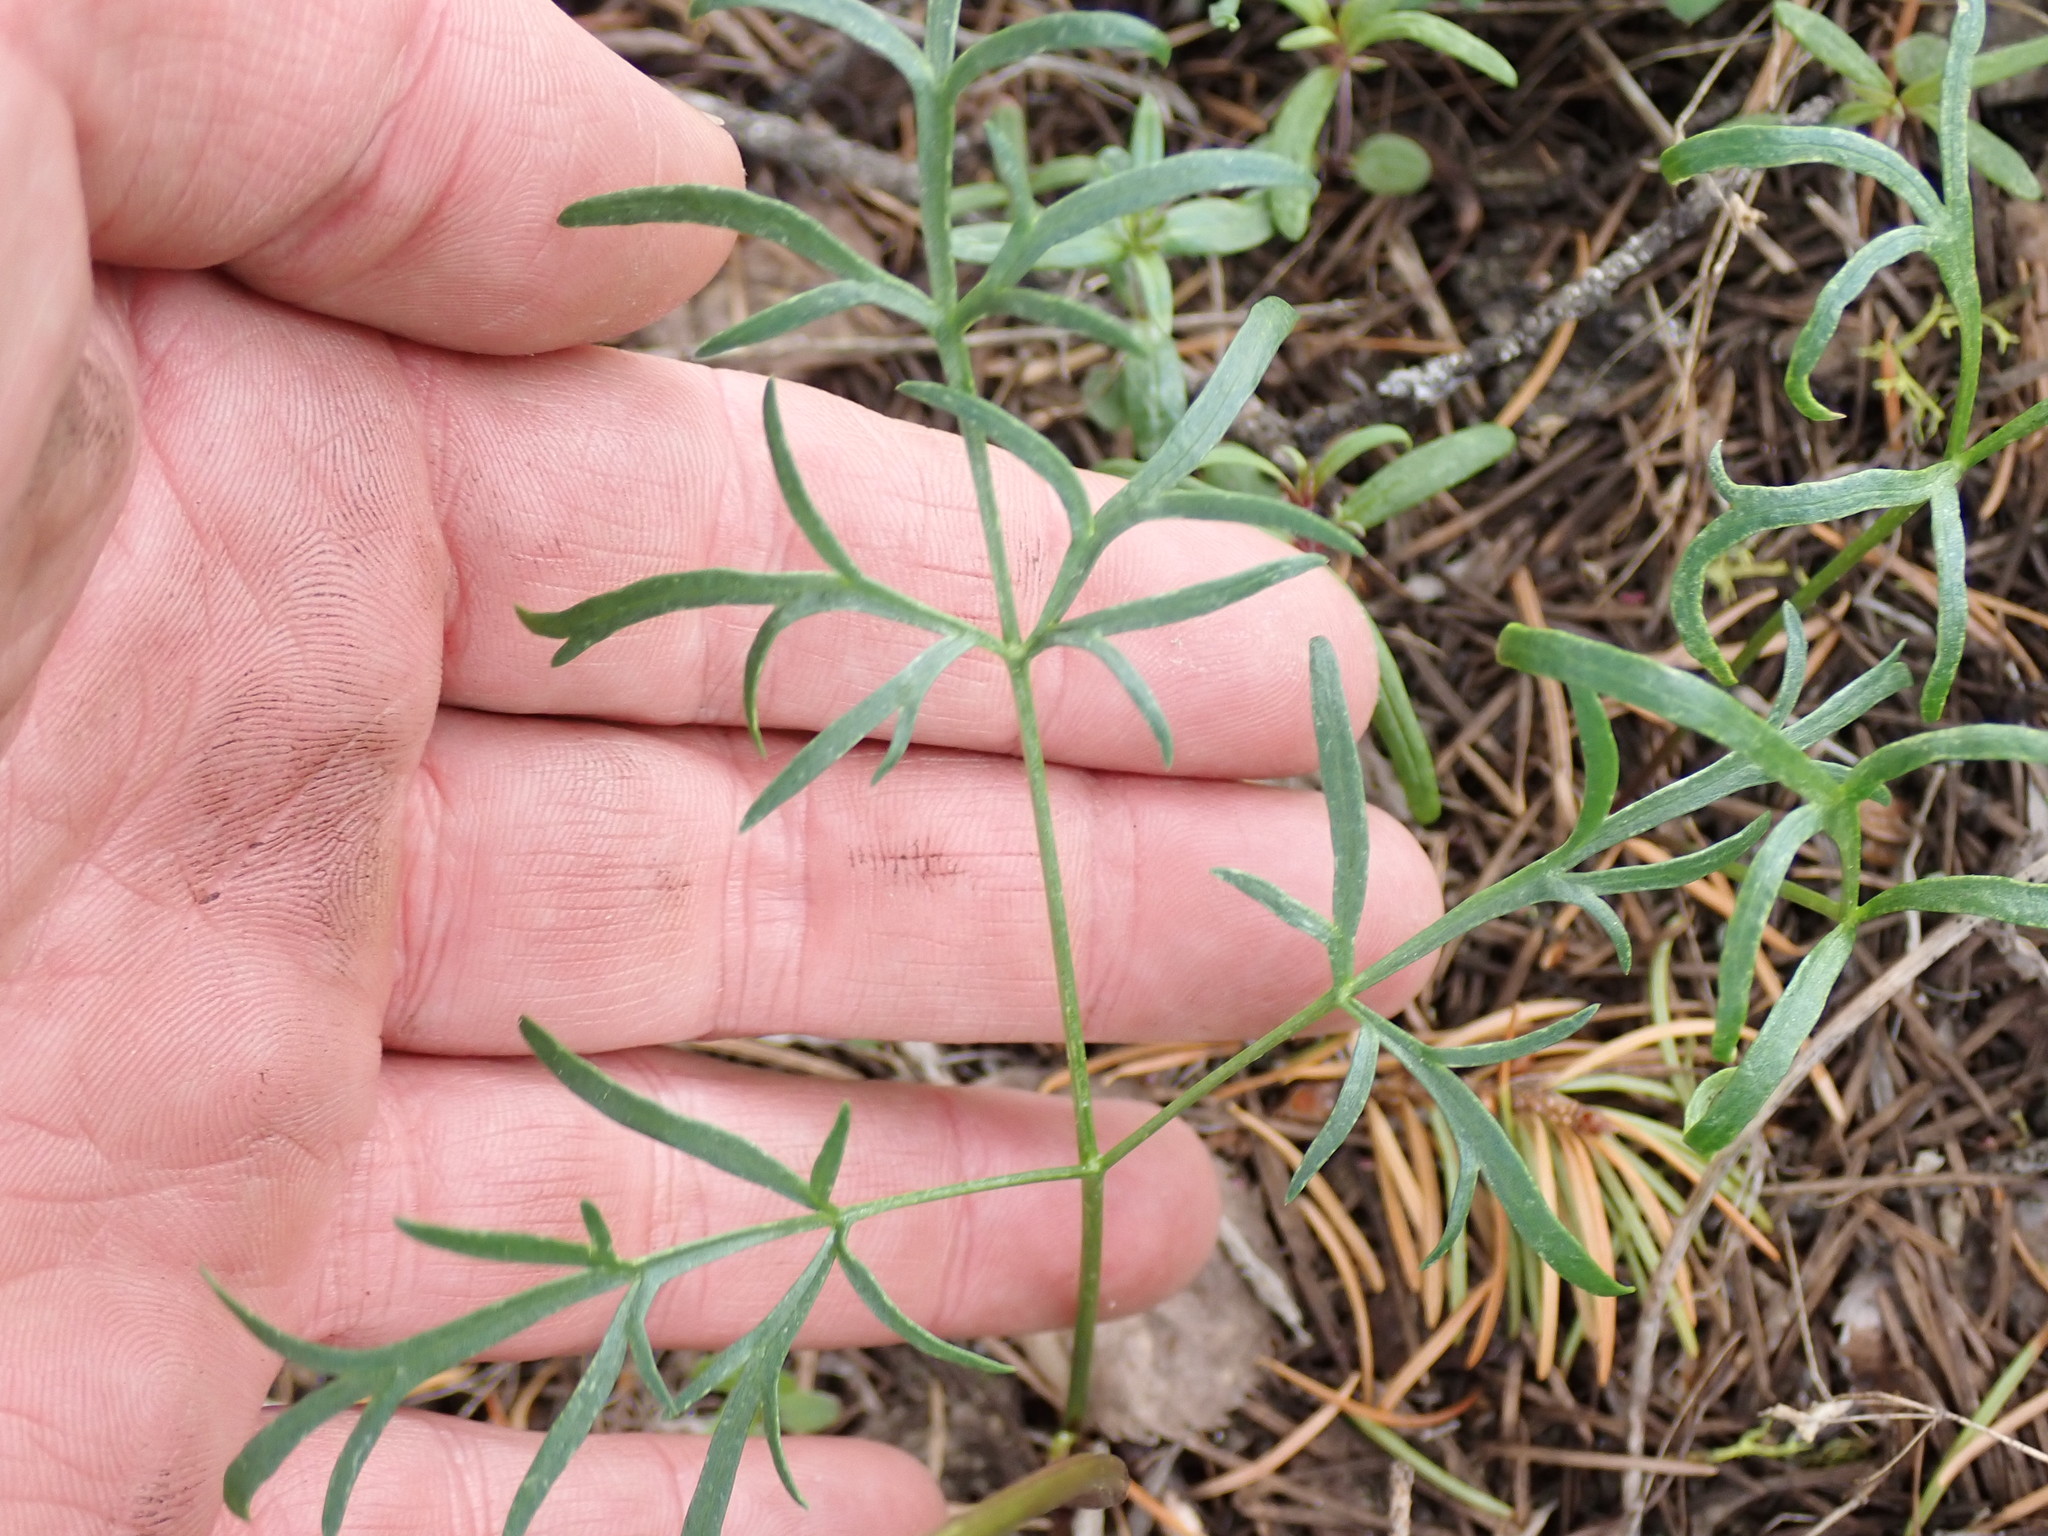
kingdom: Plantae
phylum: Tracheophyta
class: Magnoliopsida
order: Apiales
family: Apiaceae
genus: Lomatium
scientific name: Lomatium geyeri
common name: Geyer's biscuitroot
